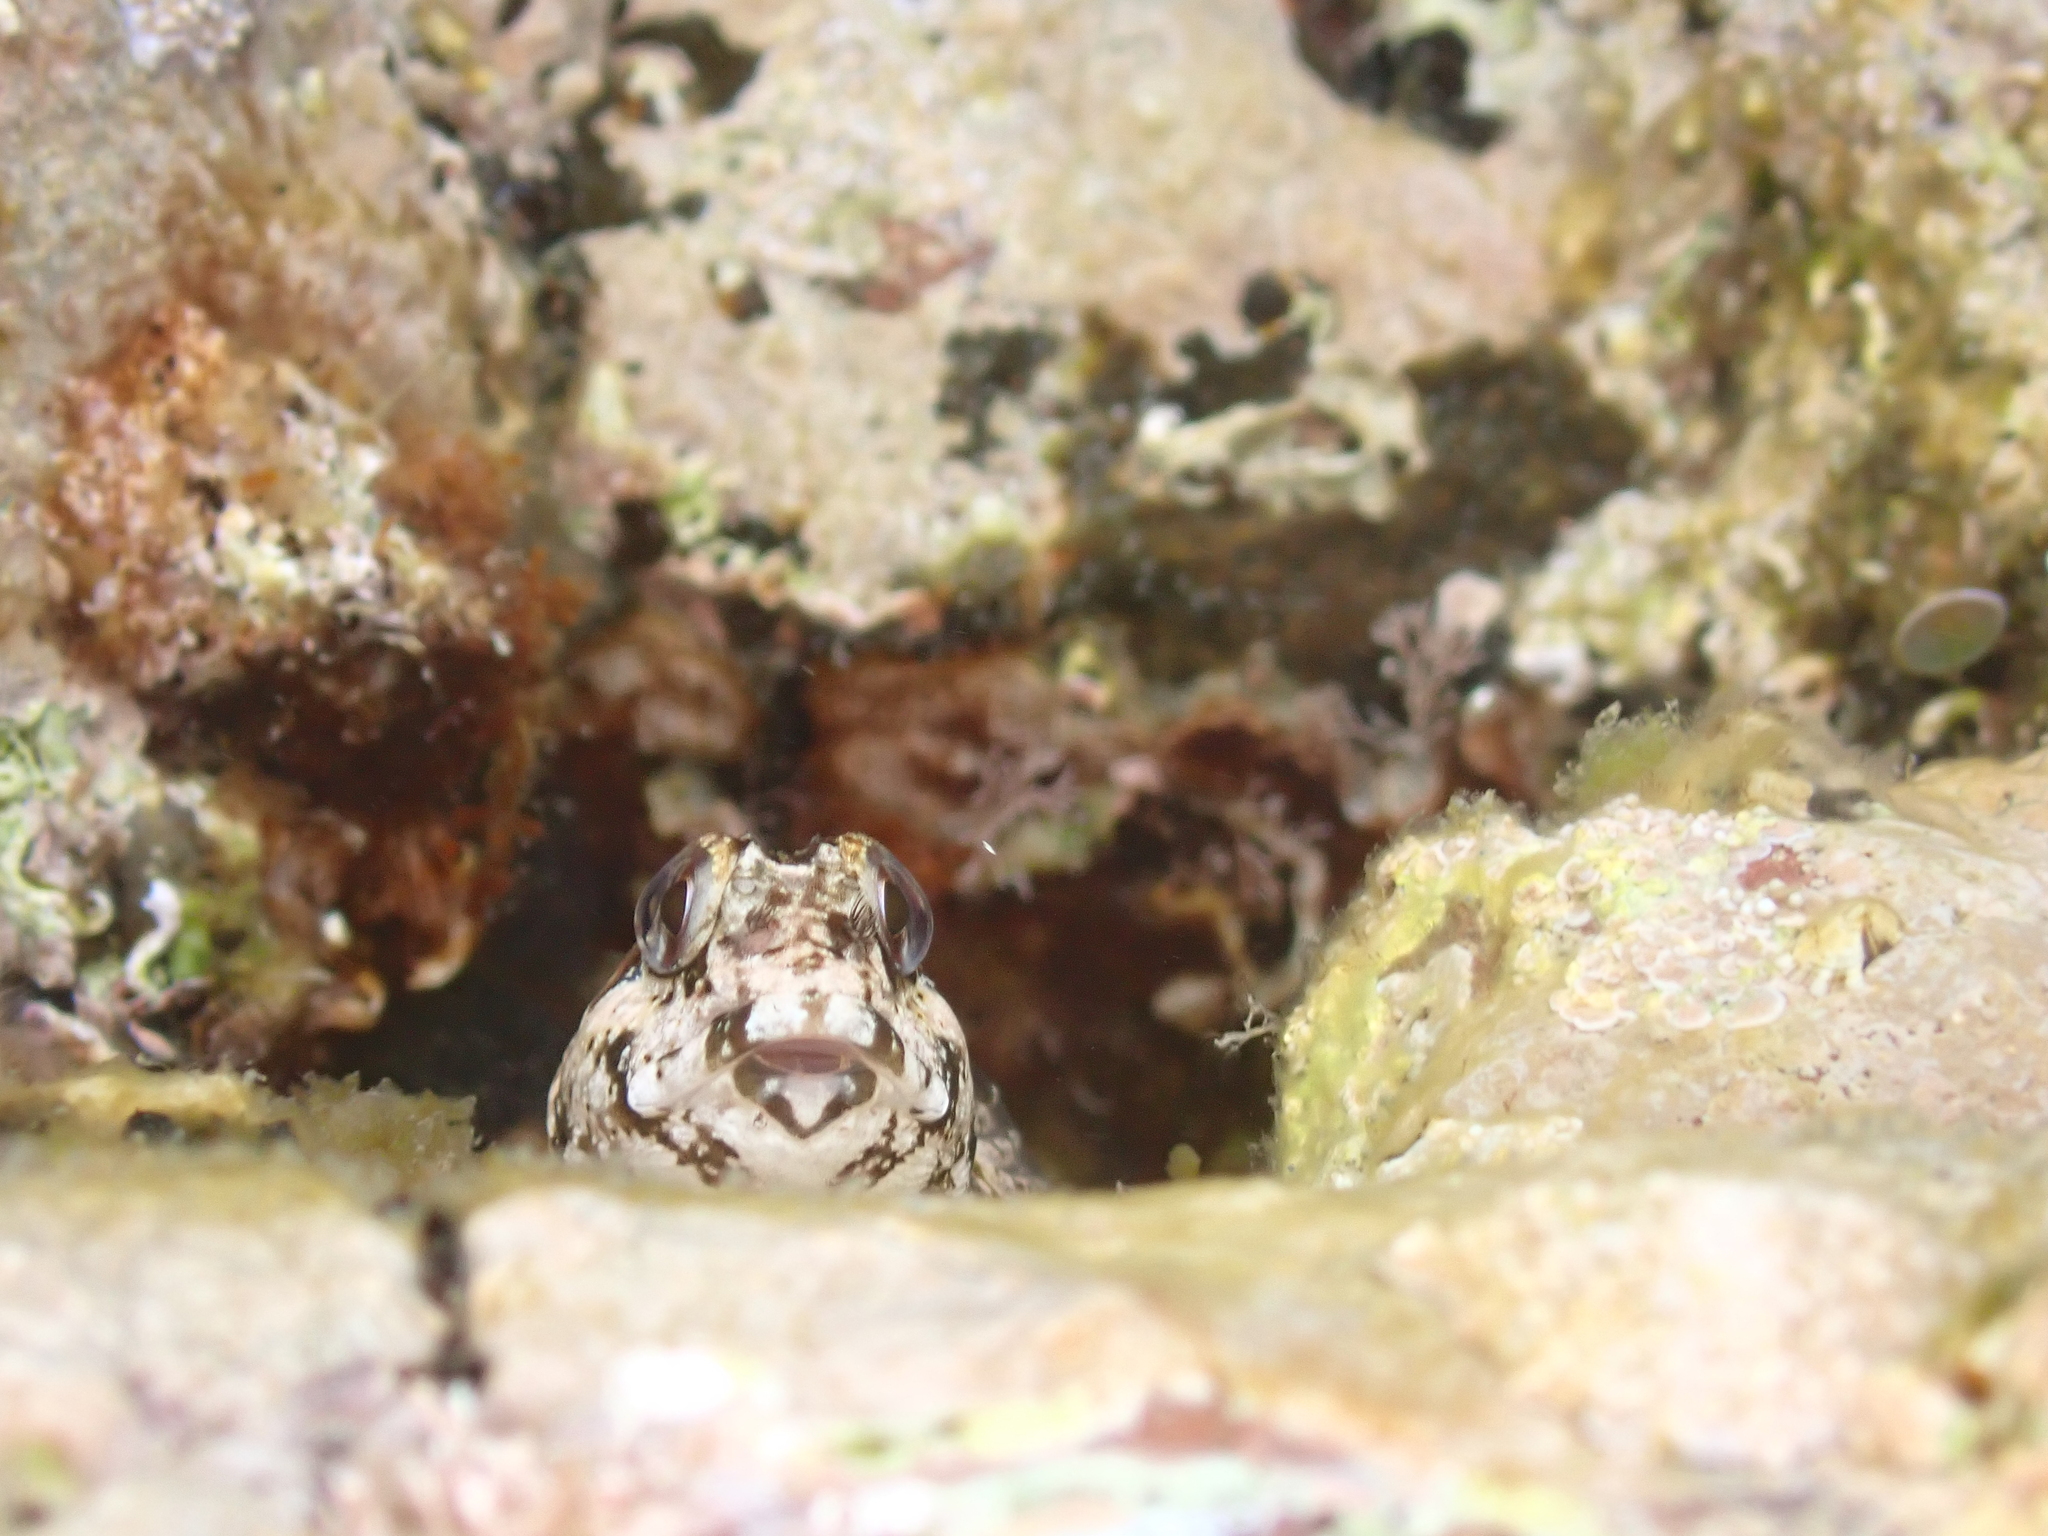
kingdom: Animalia
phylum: Chordata
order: Perciformes
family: Blenniidae
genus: Lipophrys
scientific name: Lipophrys trigloides
